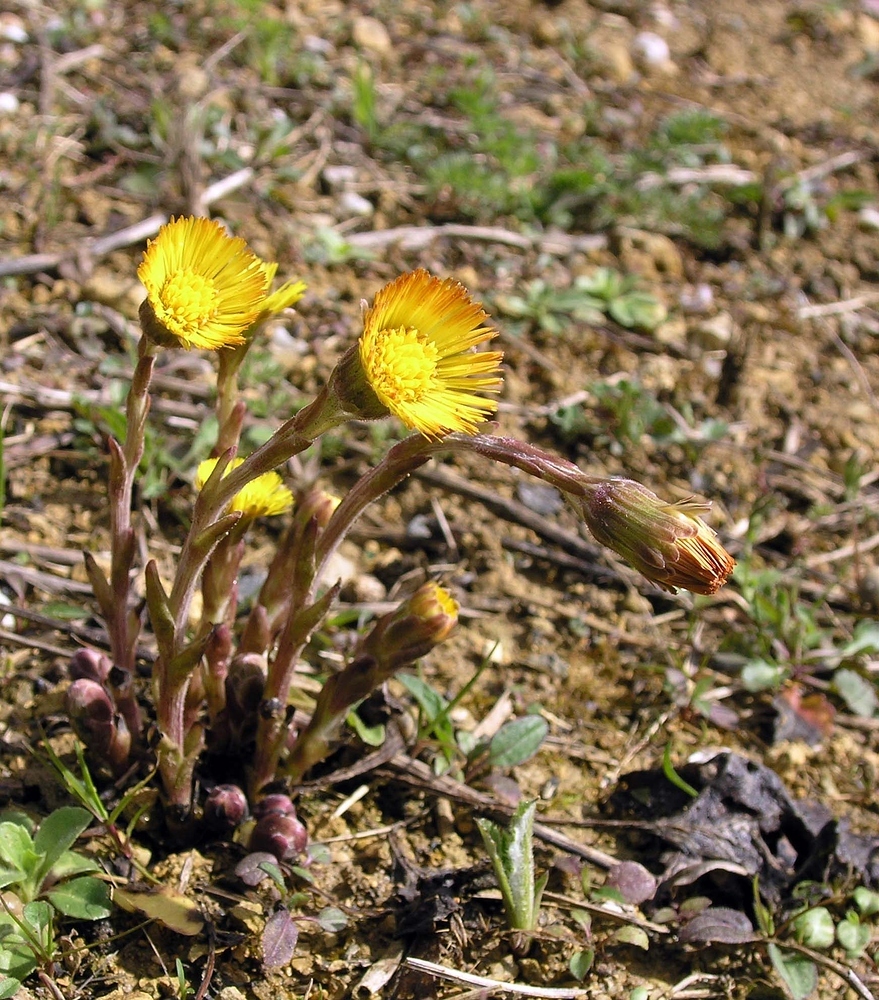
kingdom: Plantae
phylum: Tracheophyta
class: Magnoliopsida
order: Asterales
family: Asteraceae
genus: Tussilago
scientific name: Tussilago farfara
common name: Coltsfoot
